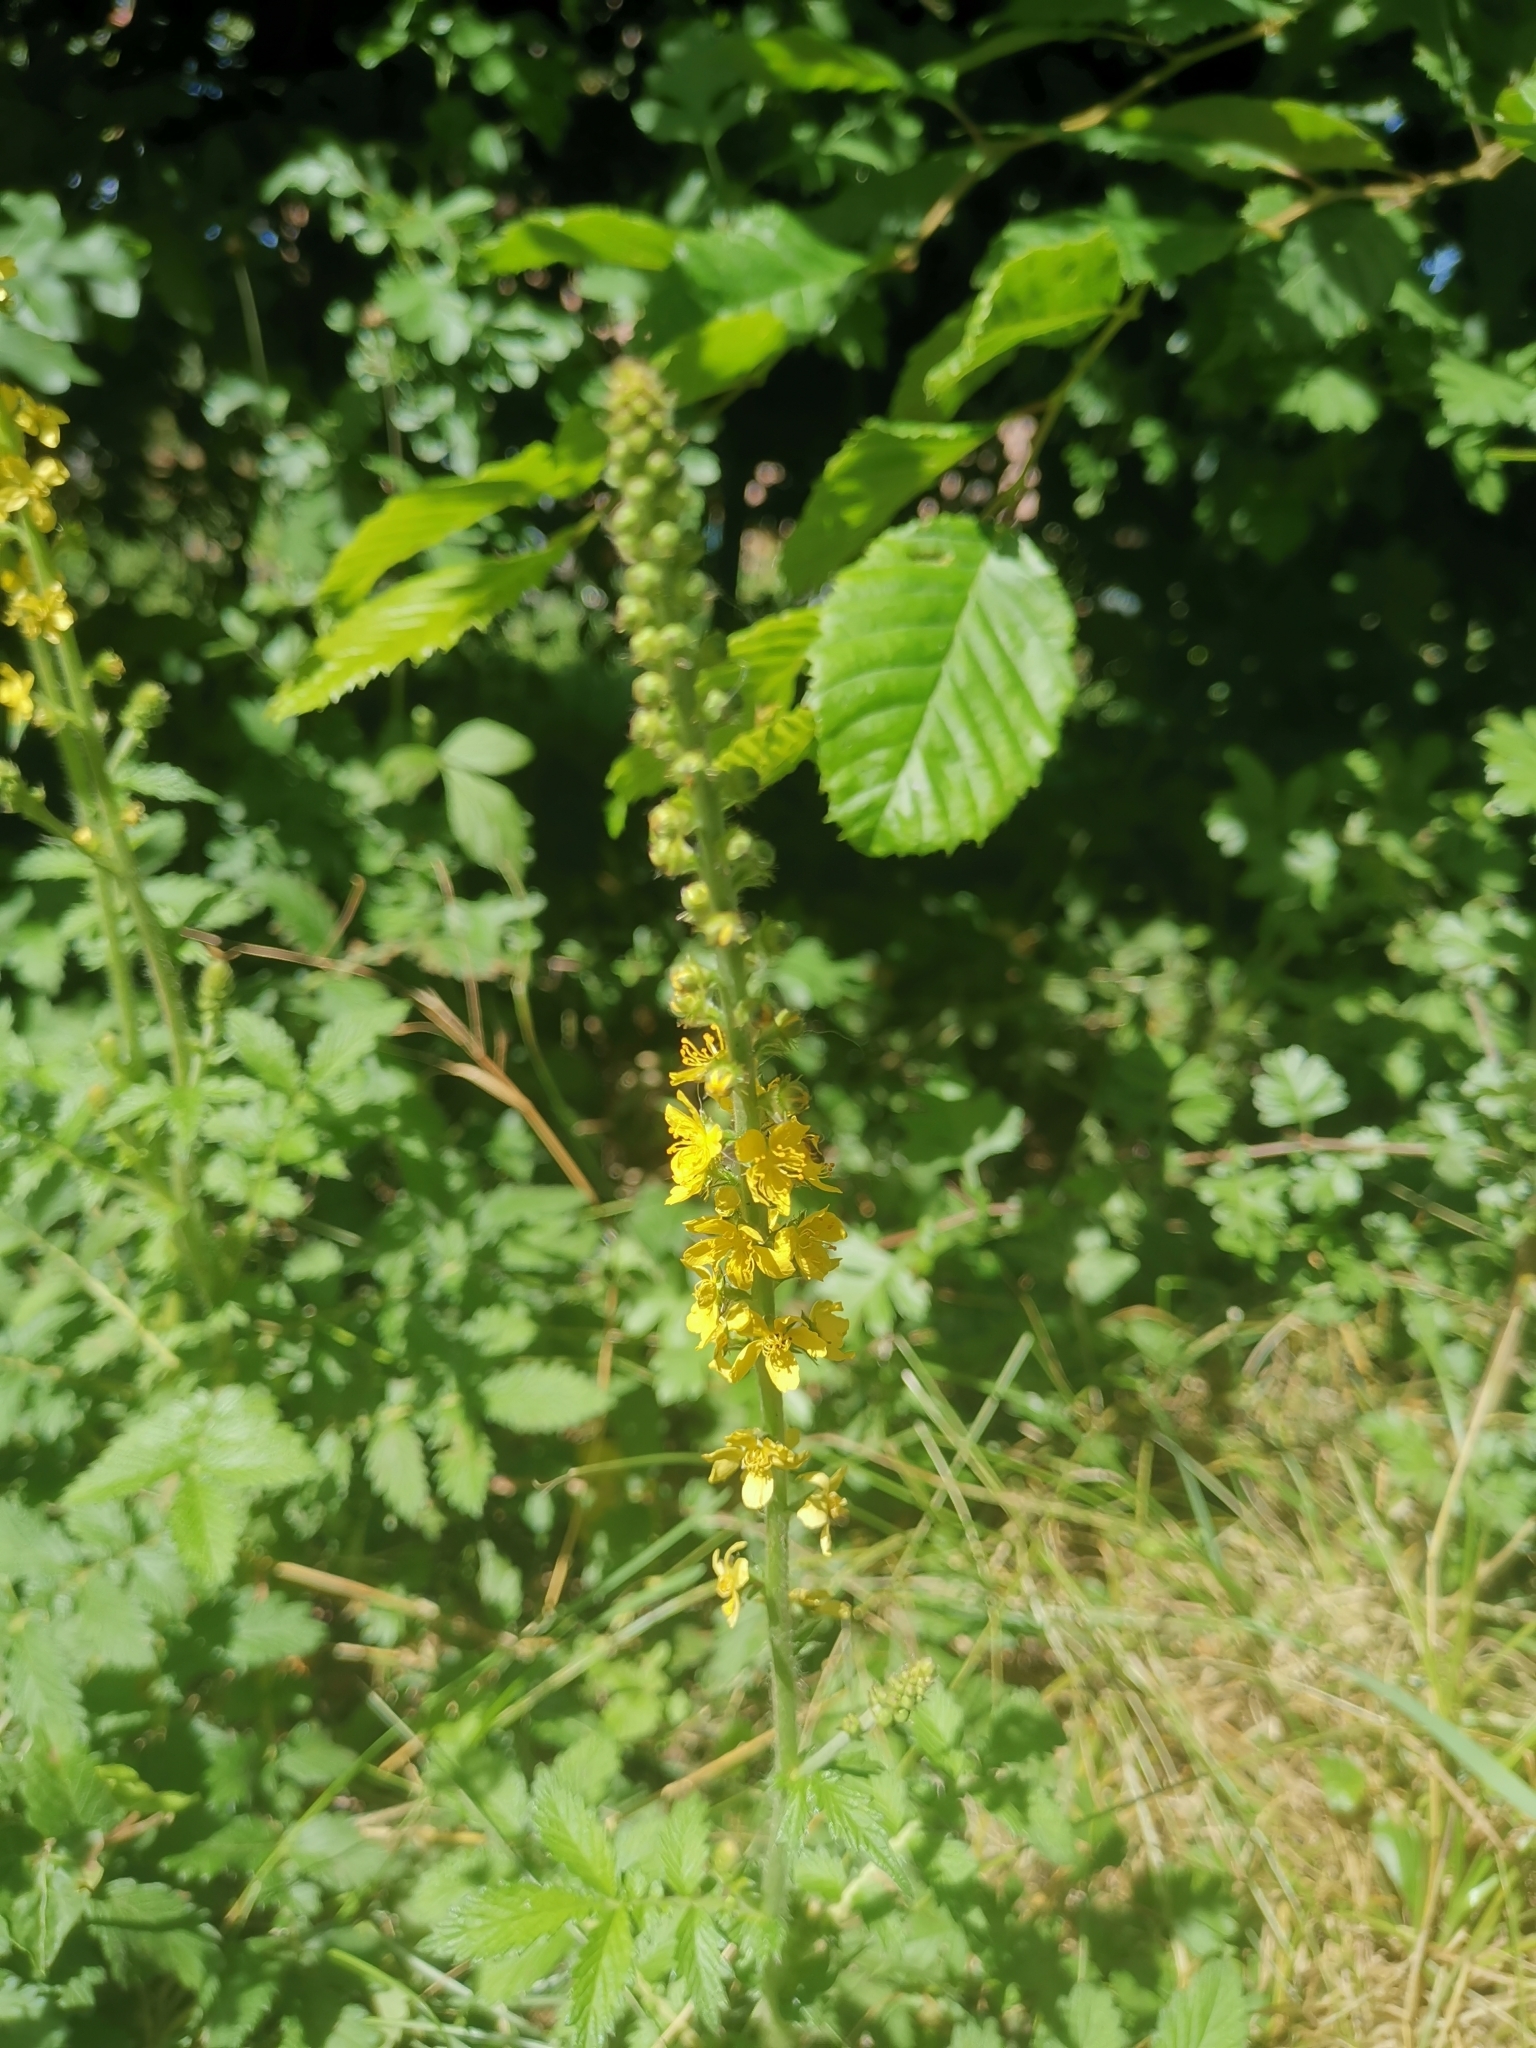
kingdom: Plantae
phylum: Tracheophyta
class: Magnoliopsida
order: Rosales
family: Rosaceae
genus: Agrimonia
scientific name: Agrimonia eupatoria
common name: Agrimony
